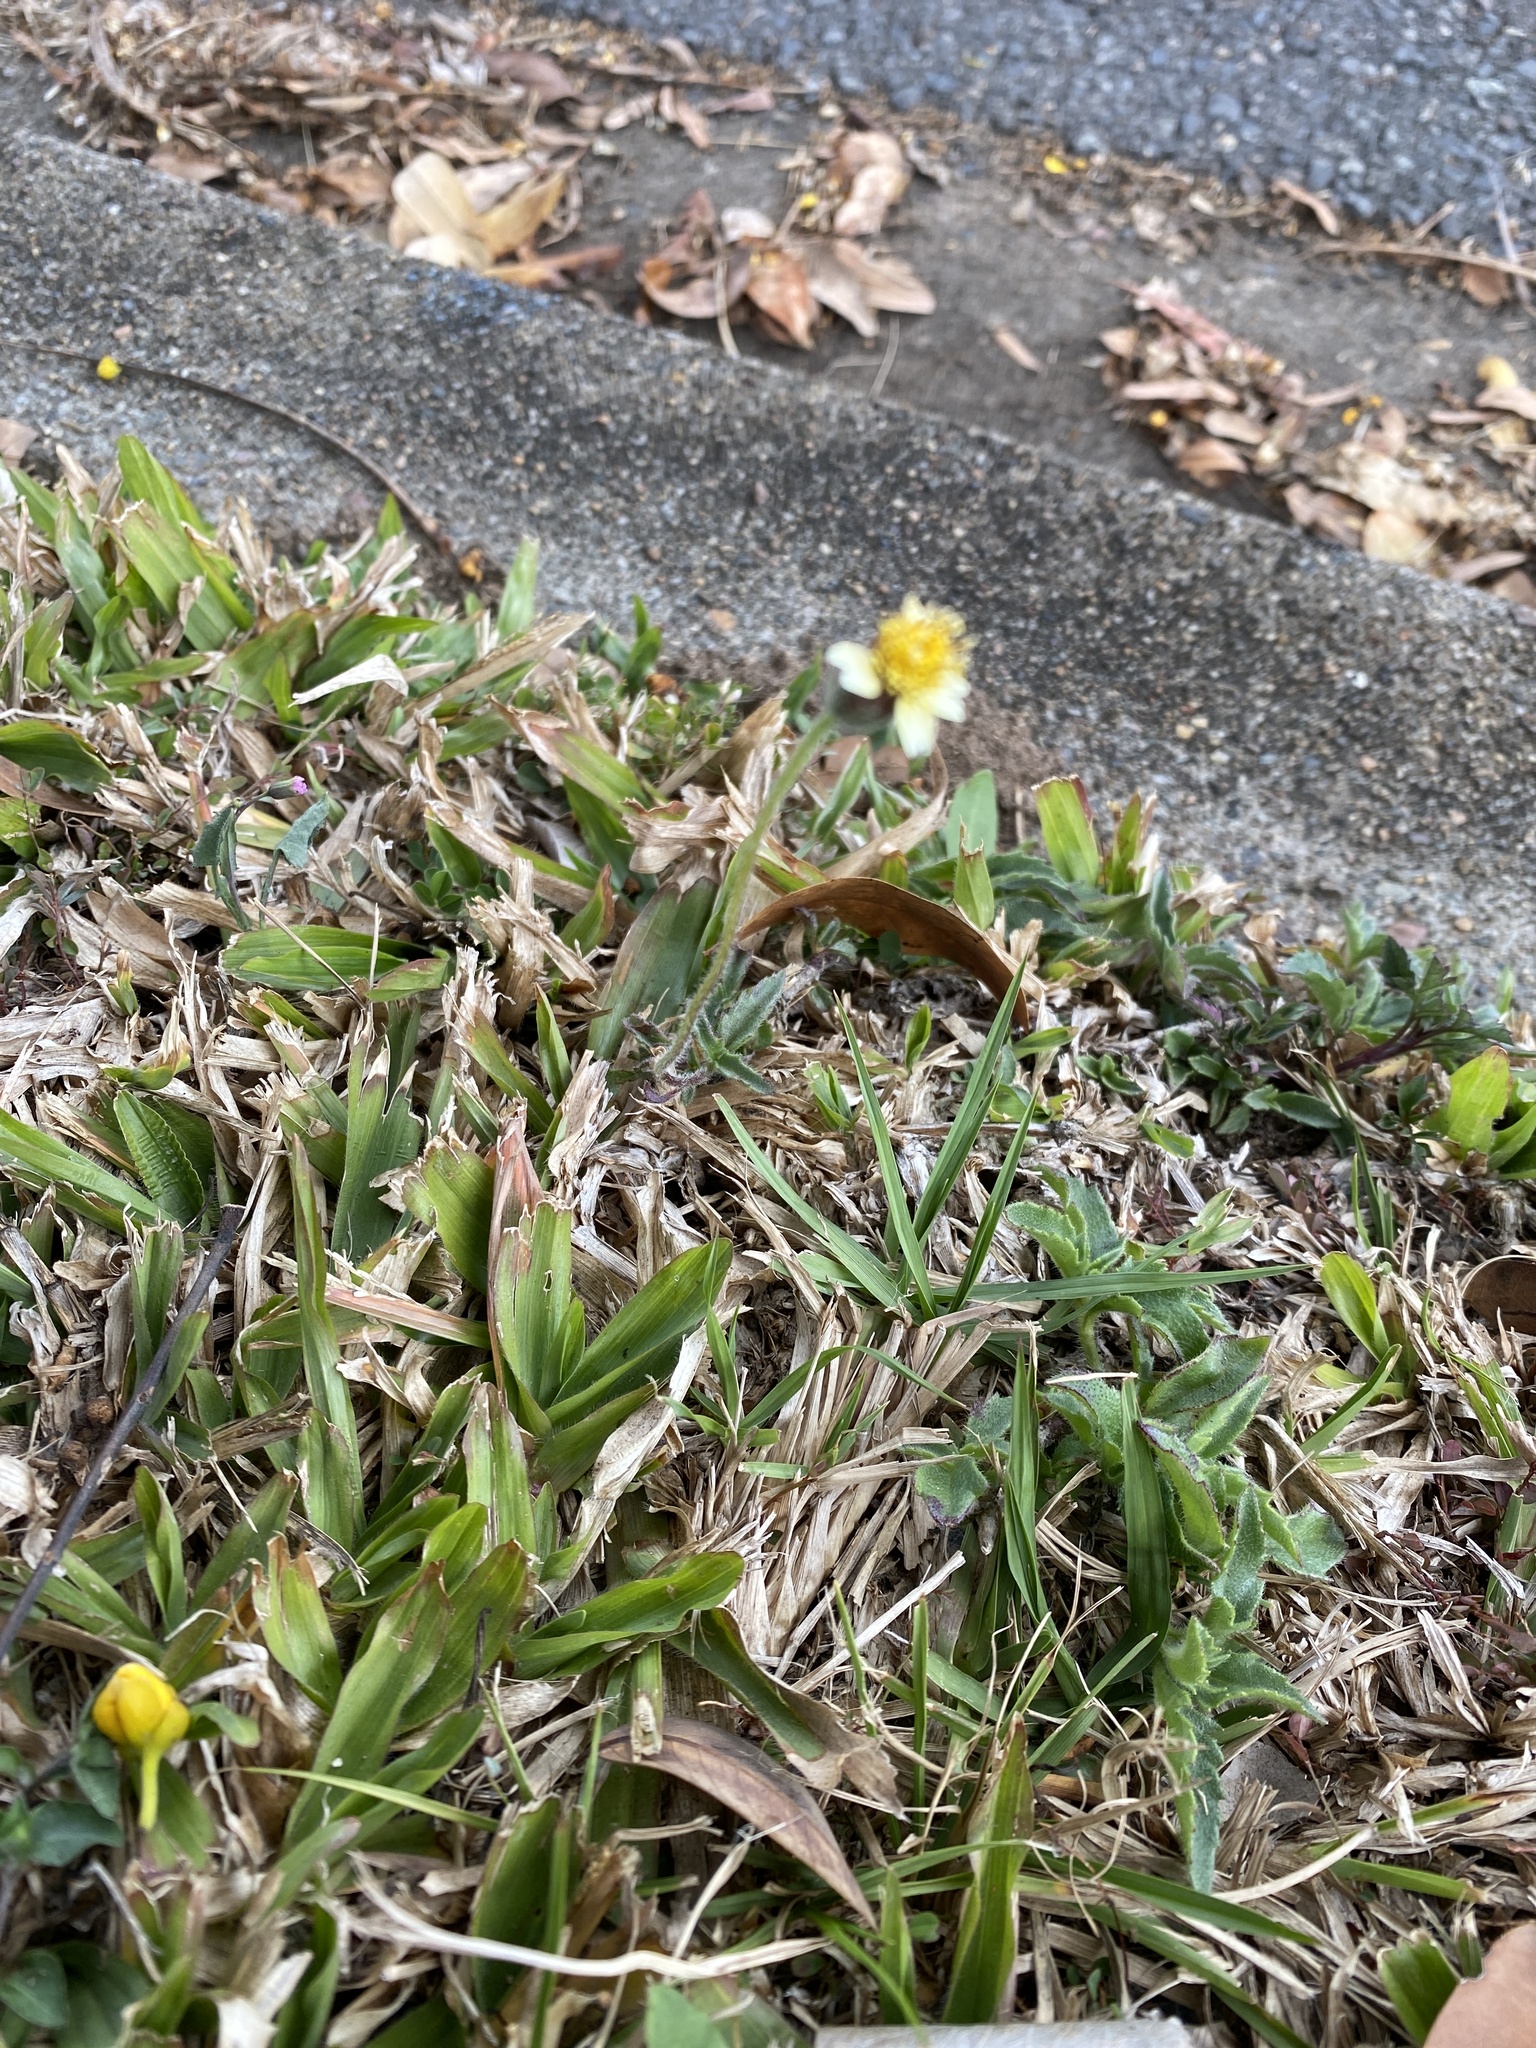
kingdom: Plantae
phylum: Tracheophyta
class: Magnoliopsida
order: Asterales
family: Asteraceae
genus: Tridax
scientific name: Tridax procumbens
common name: Coatbuttons
